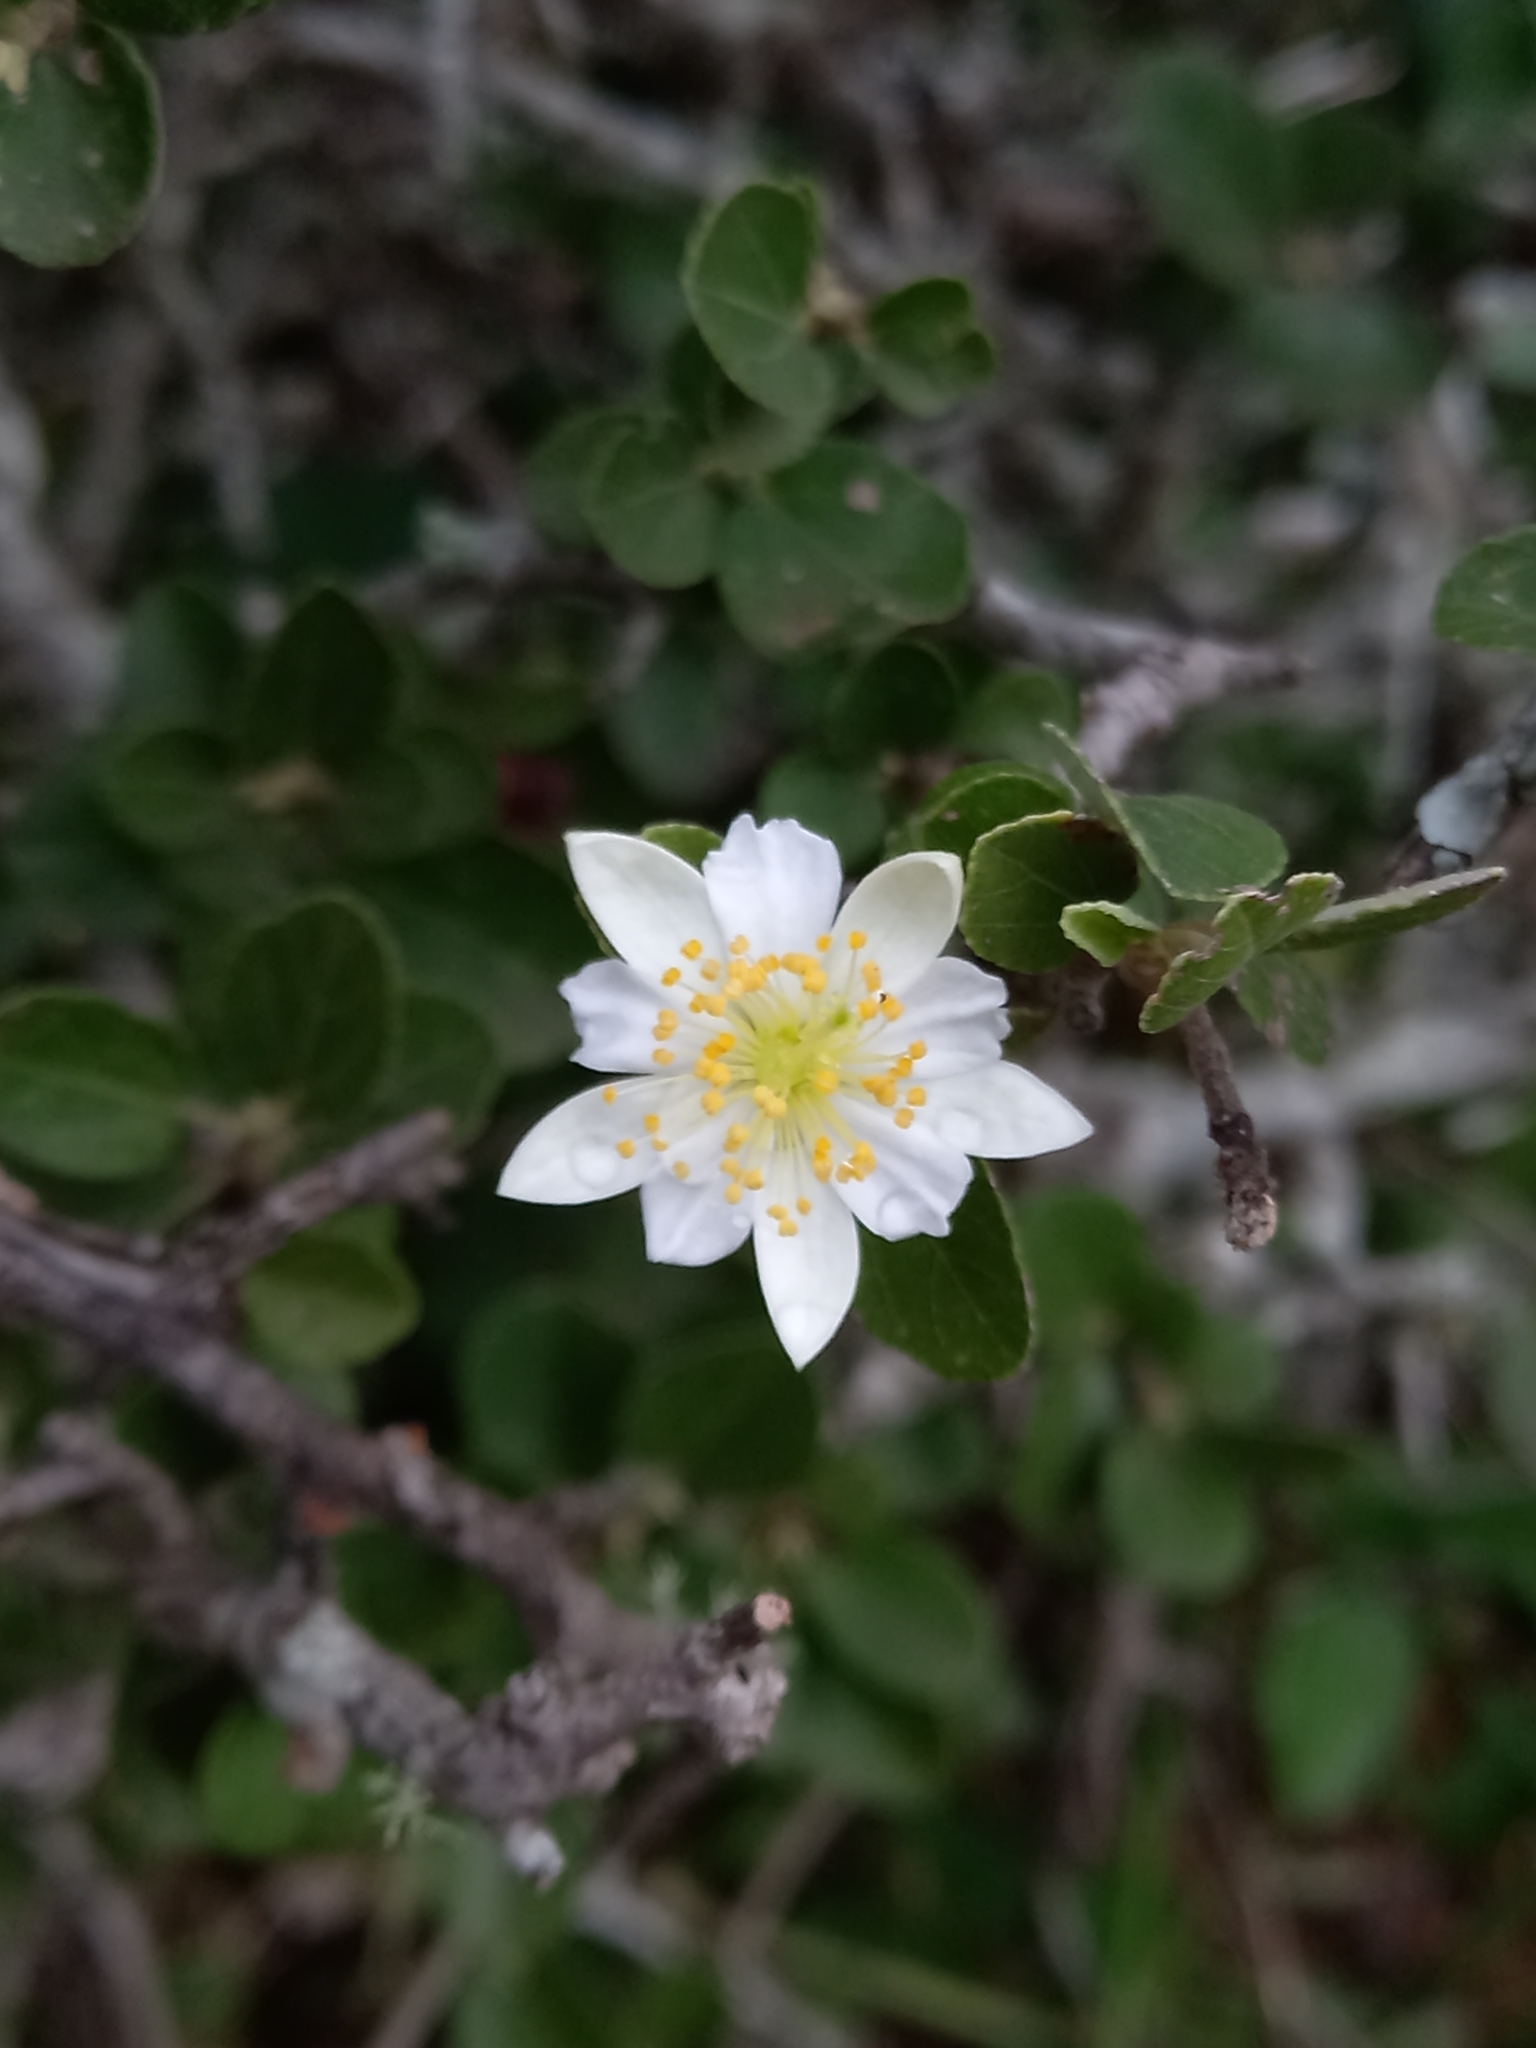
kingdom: Plantae
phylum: Tracheophyta
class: Magnoliopsida
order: Malvales
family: Malvaceae
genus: Grewia
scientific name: Grewia robusta
